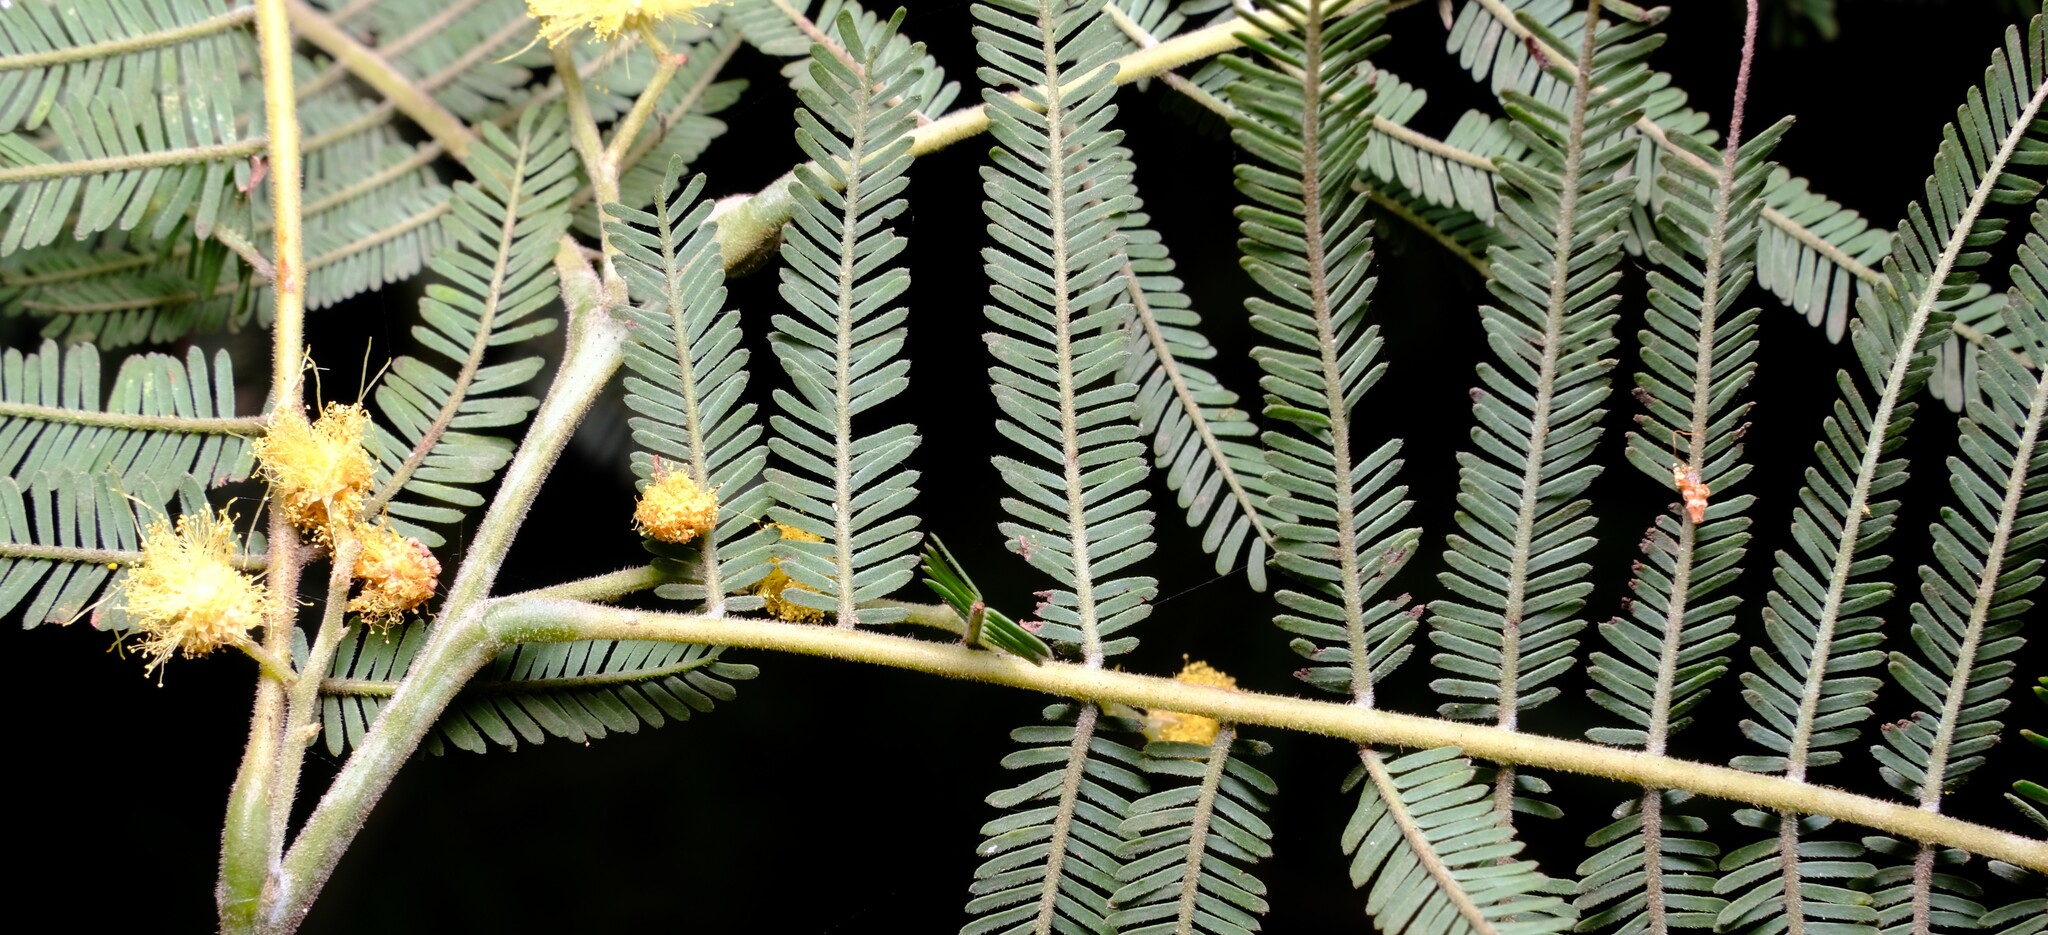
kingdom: Plantae
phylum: Tracheophyta
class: Magnoliopsida
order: Fabales
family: Fabaceae
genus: Acacia
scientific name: Acacia dealbata
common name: Silver wattle
